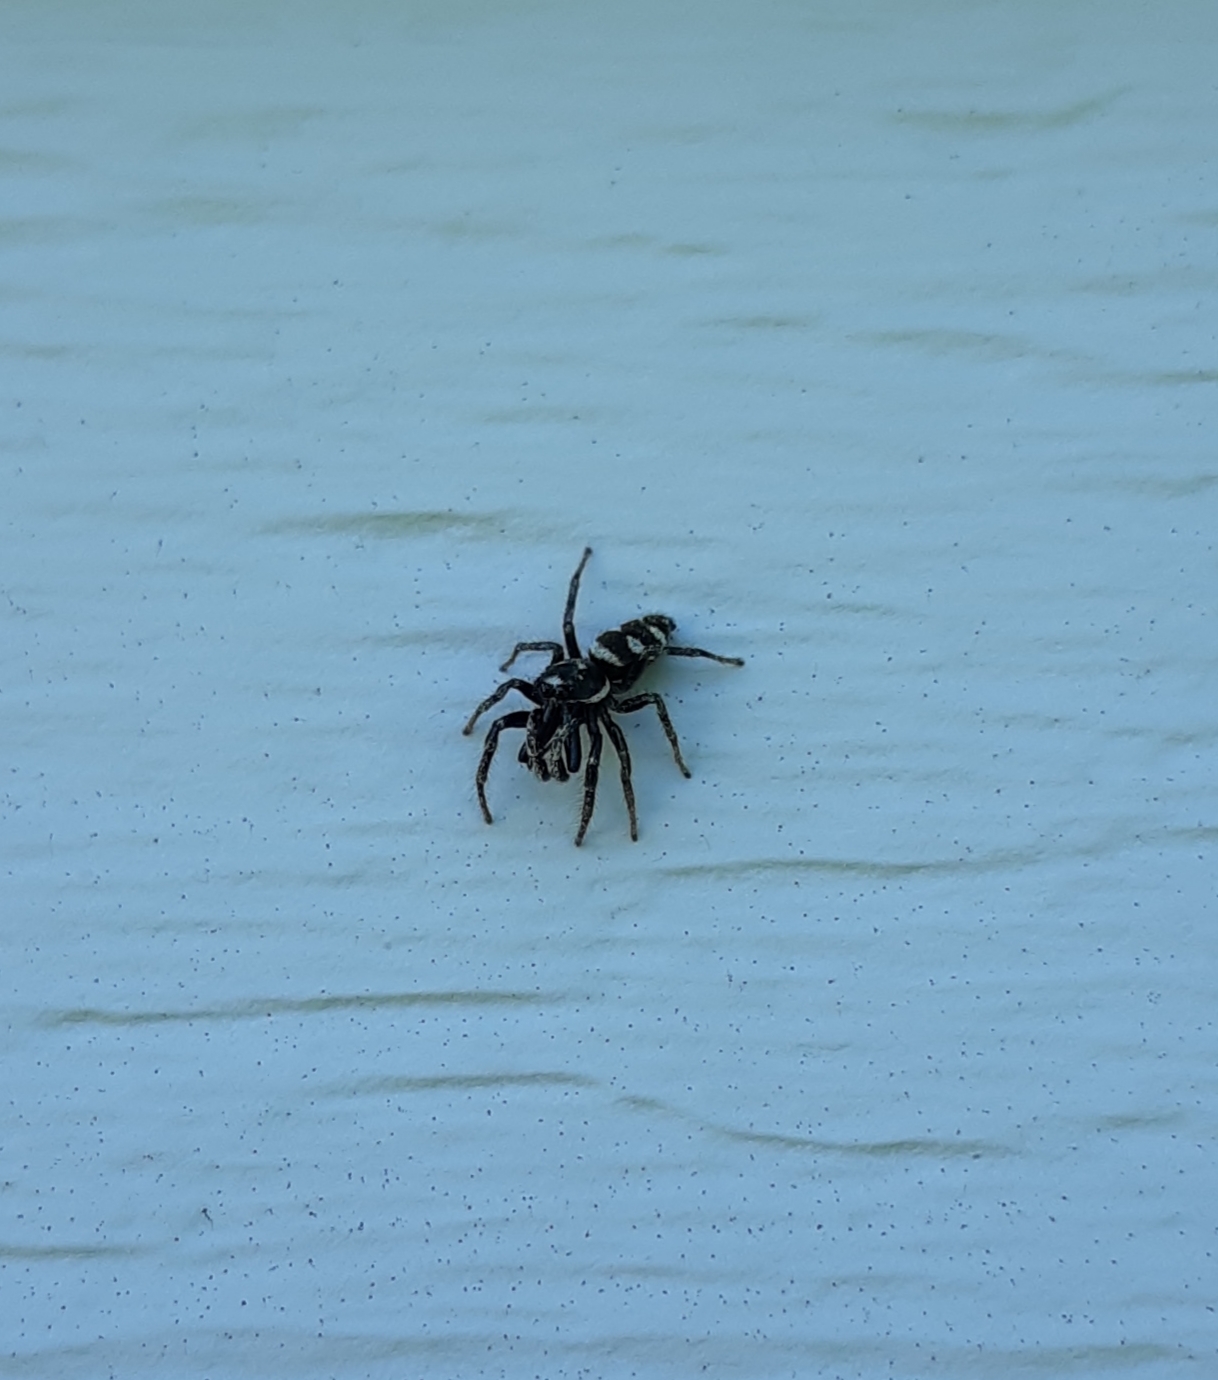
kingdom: Animalia
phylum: Arthropoda
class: Arachnida
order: Araneae
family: Salticidae
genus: Salticus
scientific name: Salticus scenicus
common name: Zebra jumper
